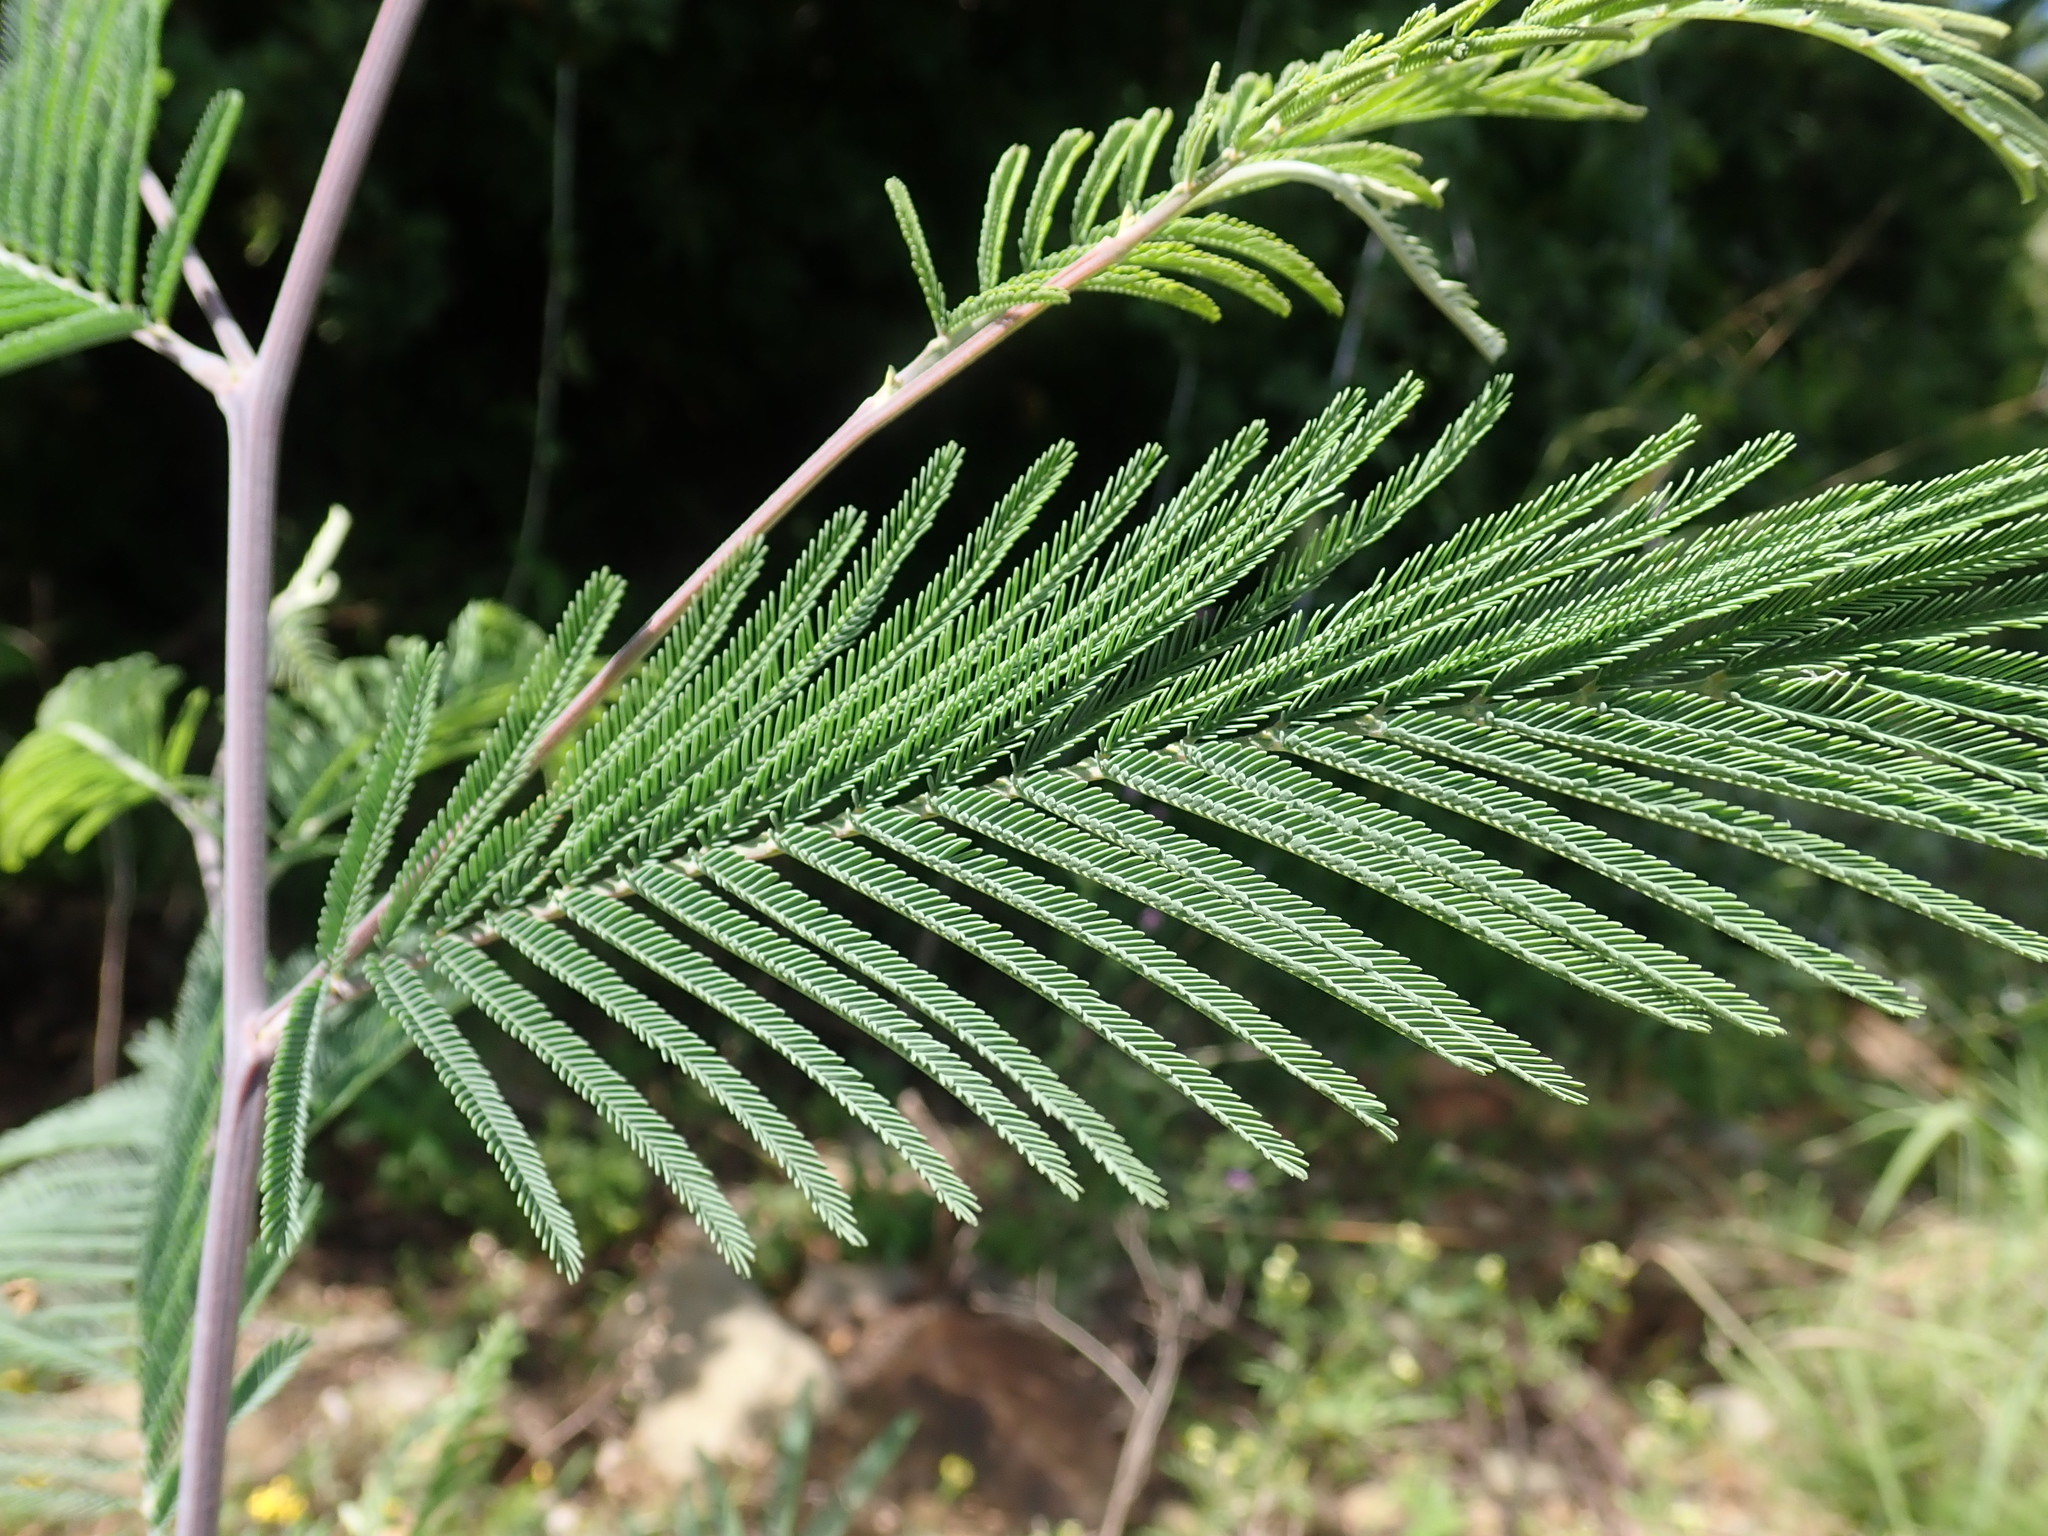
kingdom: Plantae
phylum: Tracheophyta
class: Magnoliopsida
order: Fabales
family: Fabaceae
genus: Acacia
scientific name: Acacia dealbata
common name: Silver wattle
